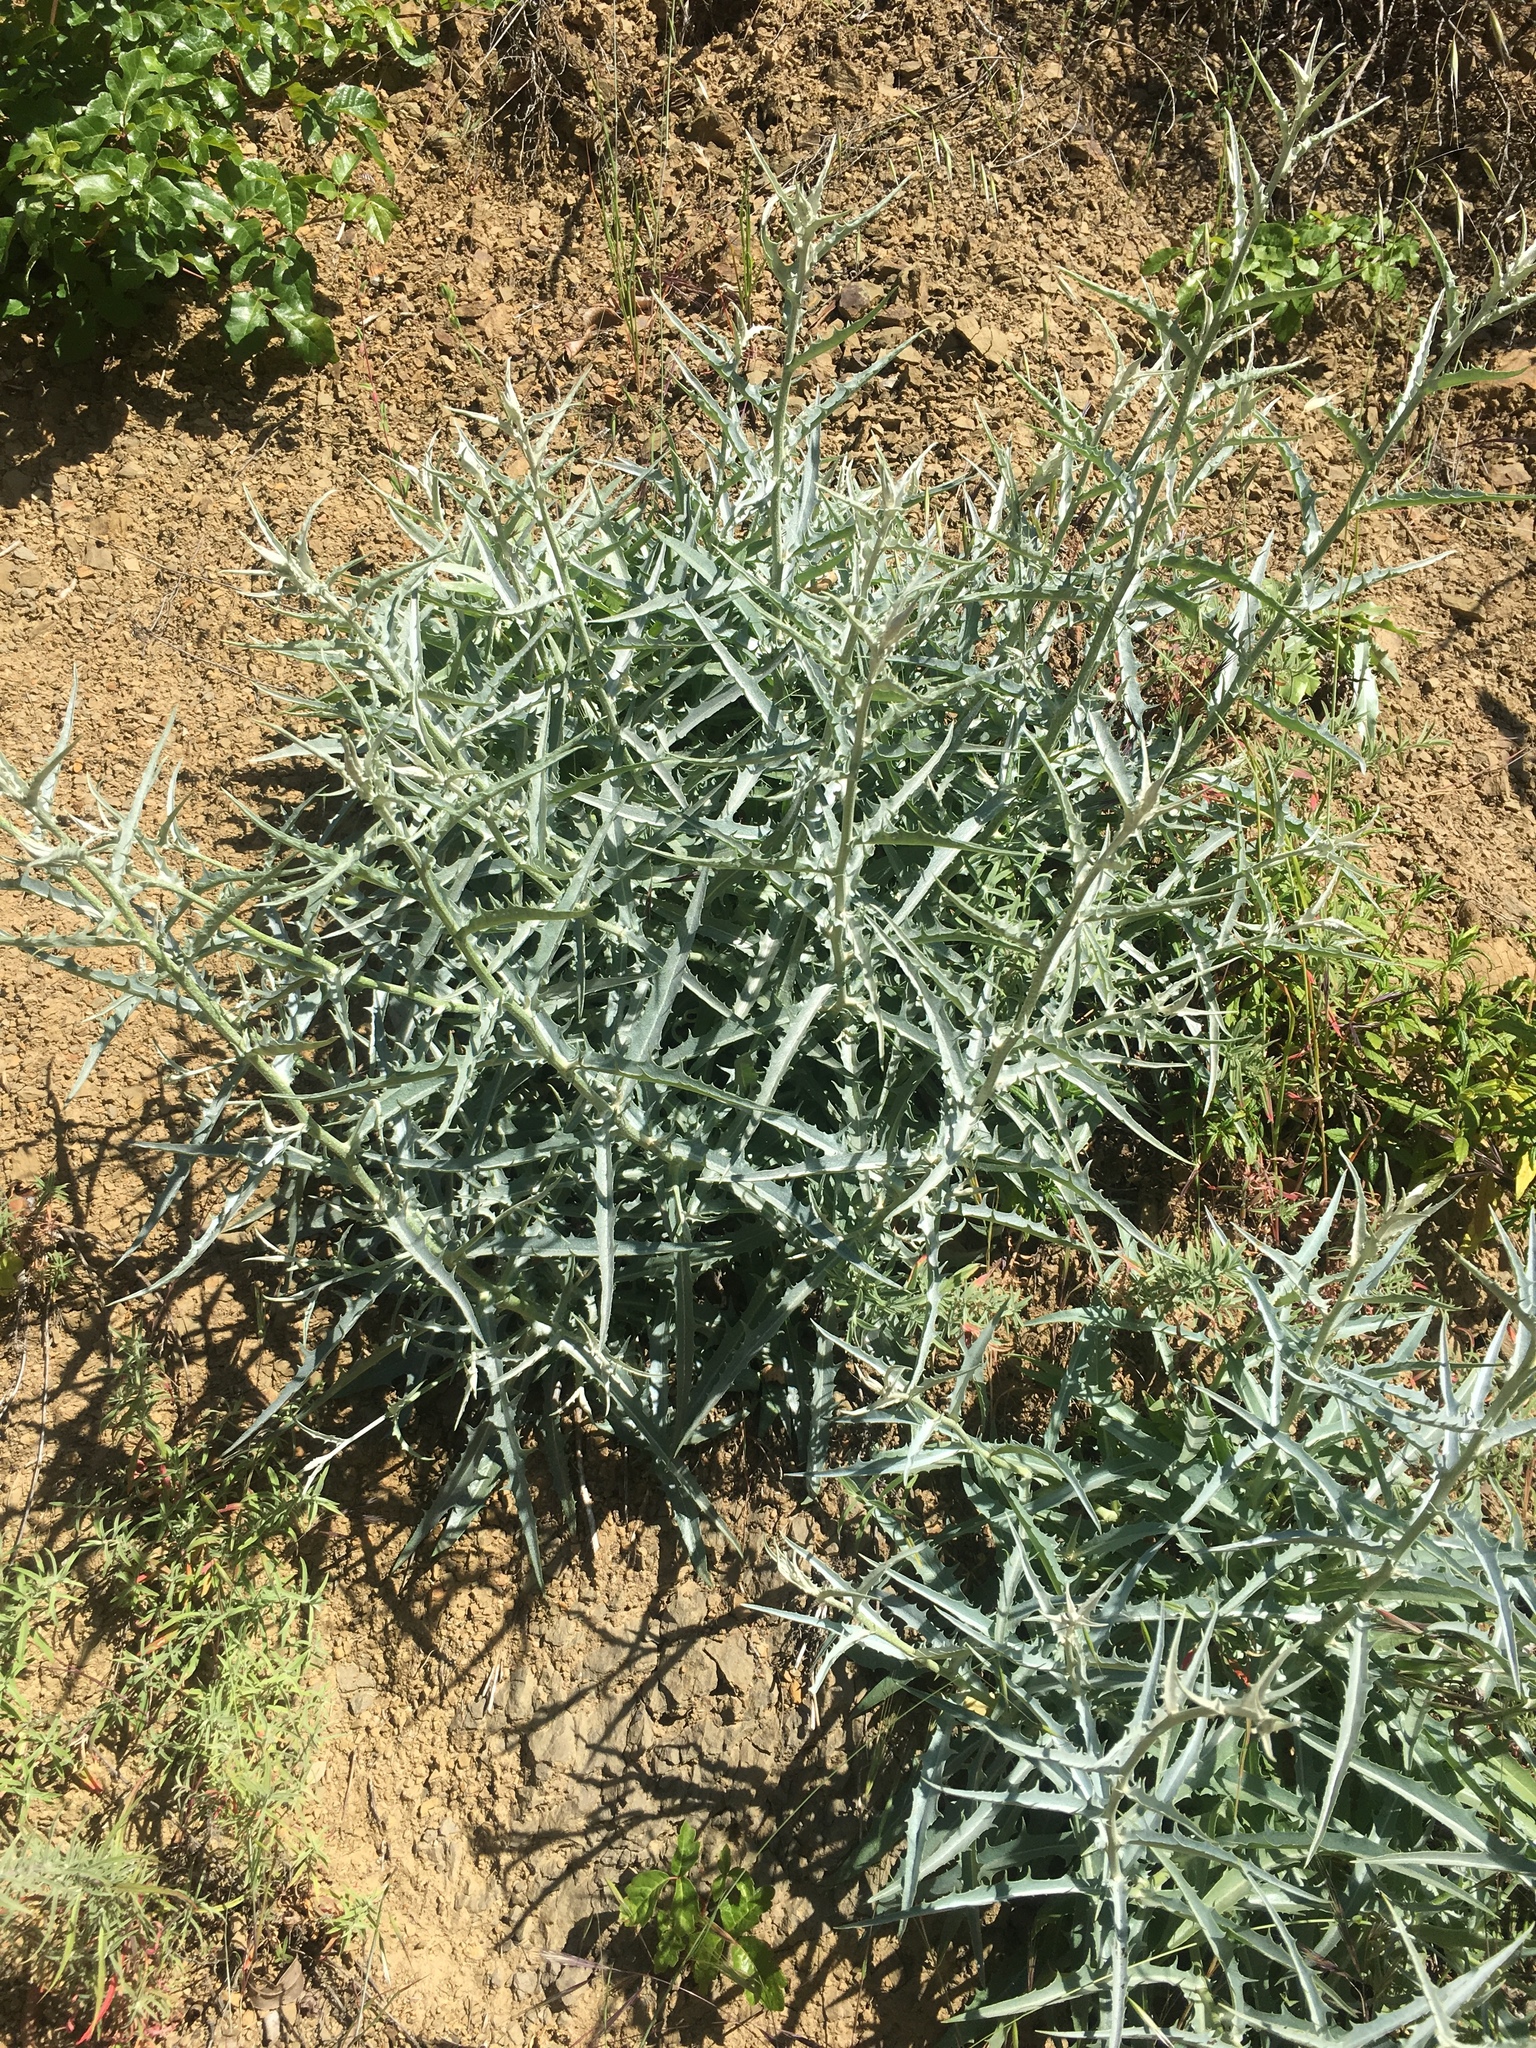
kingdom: Plantae
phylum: Tracheophyta
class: Magnoliopsida
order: Asterales
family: Asteraceae
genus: Stephanomeria
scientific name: Stephanomeria cichoriacea
